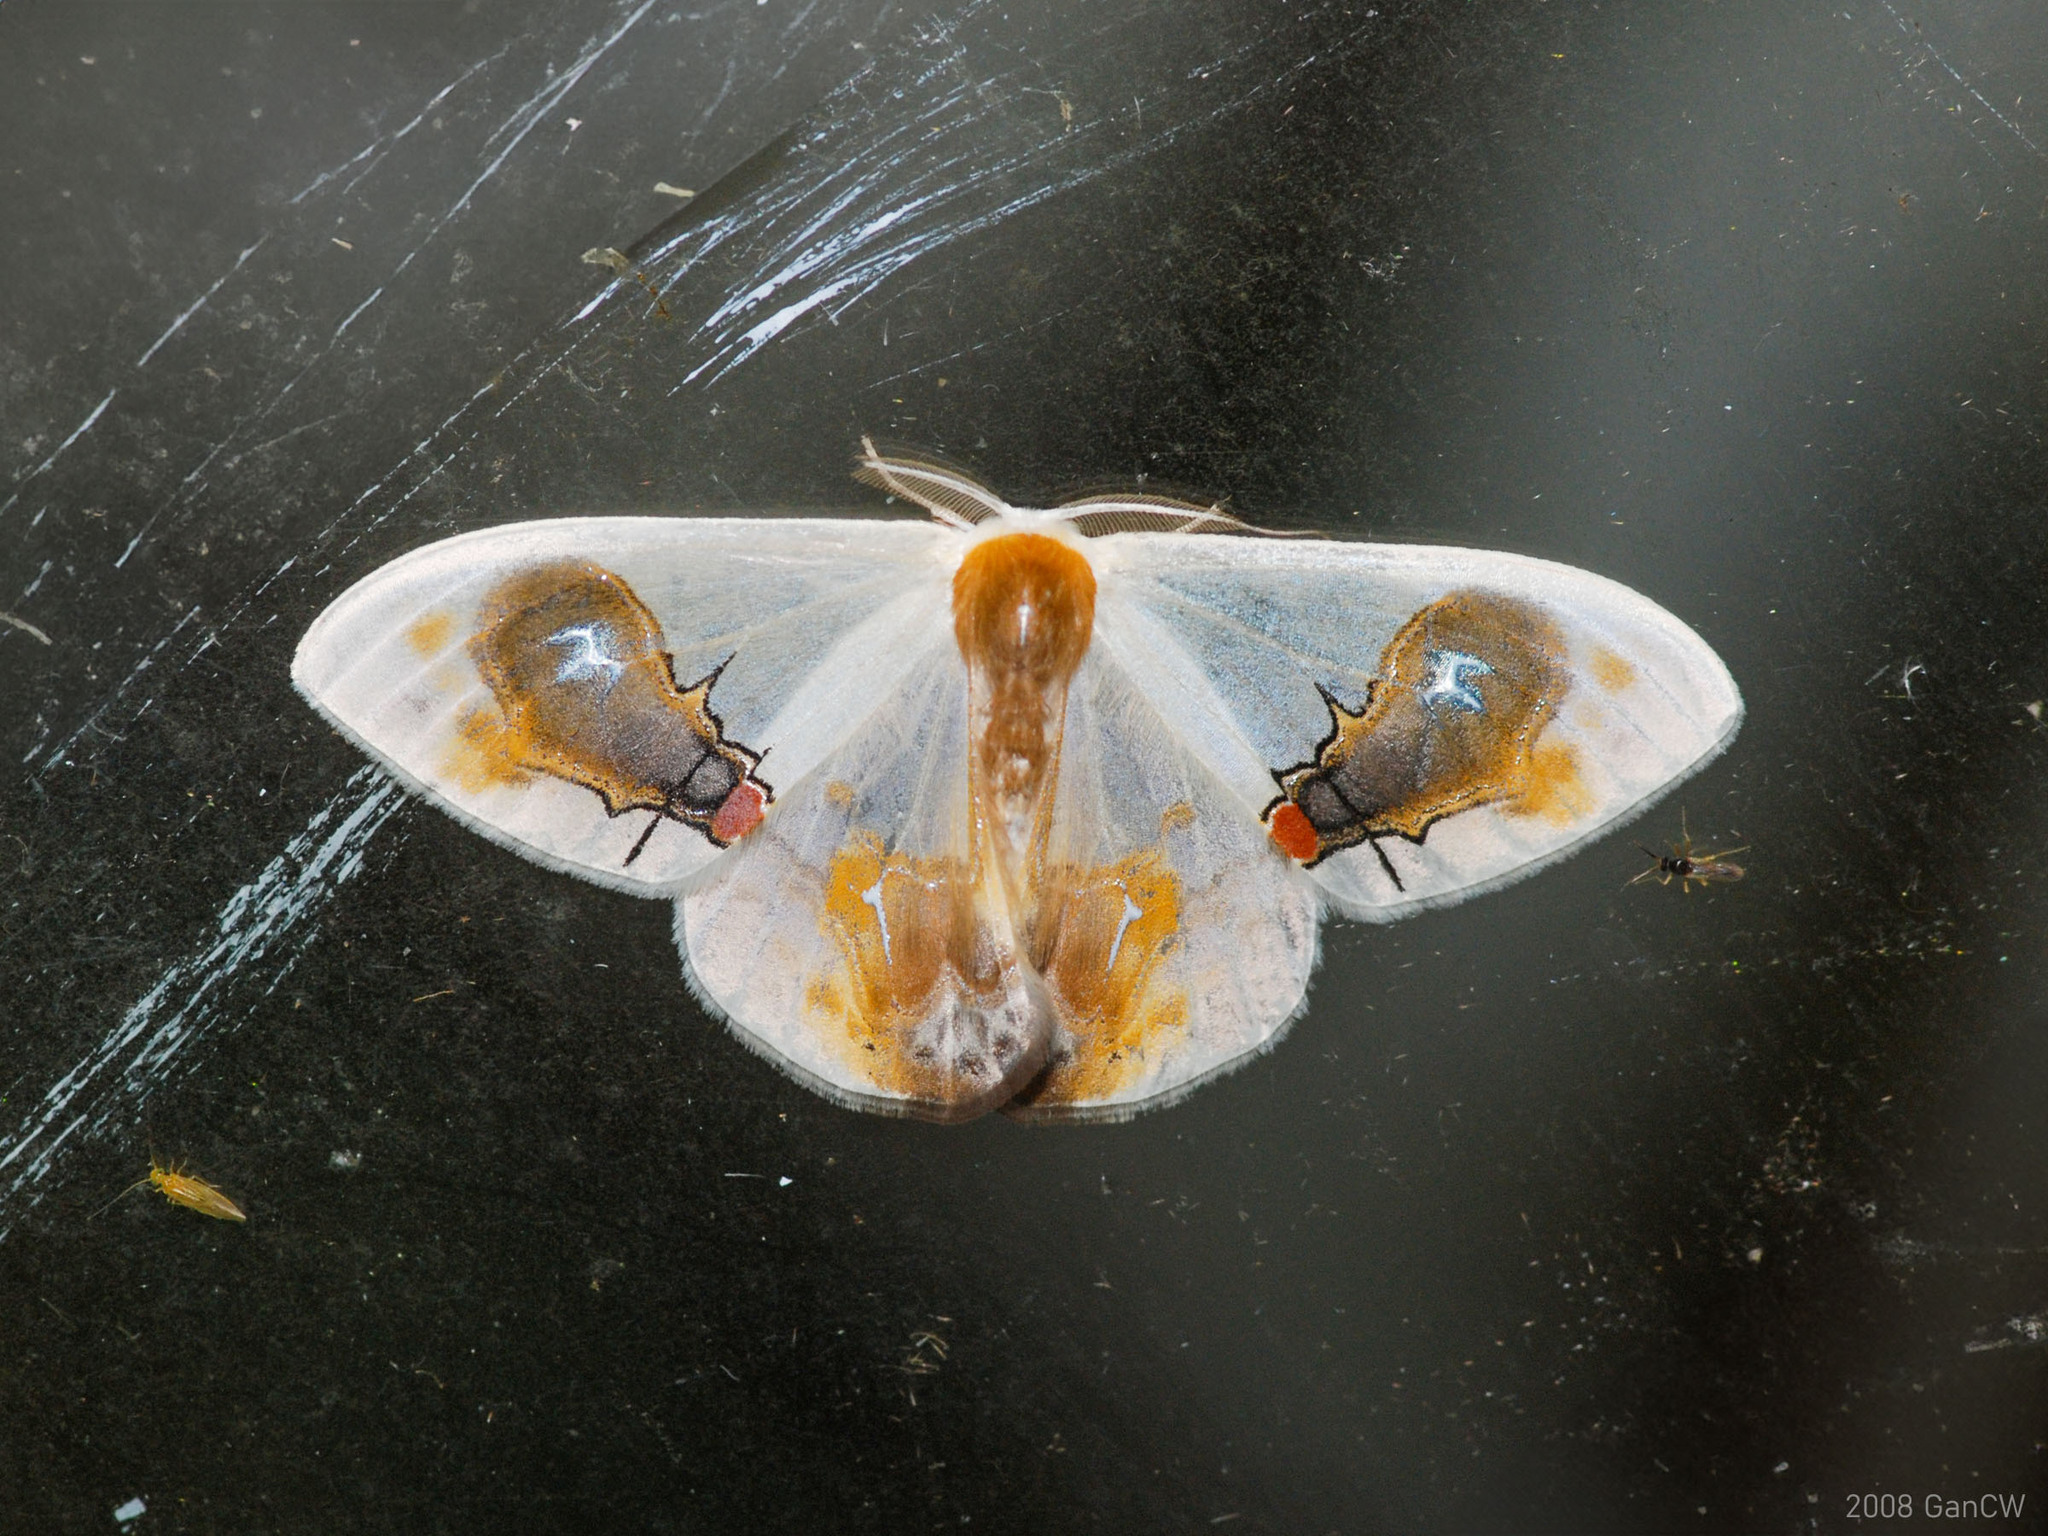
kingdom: Animalia
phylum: Arthropoda
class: Insecta
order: Lepidoptera
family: Drepanidae
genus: Macrocilix
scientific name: Macrocilix maia
